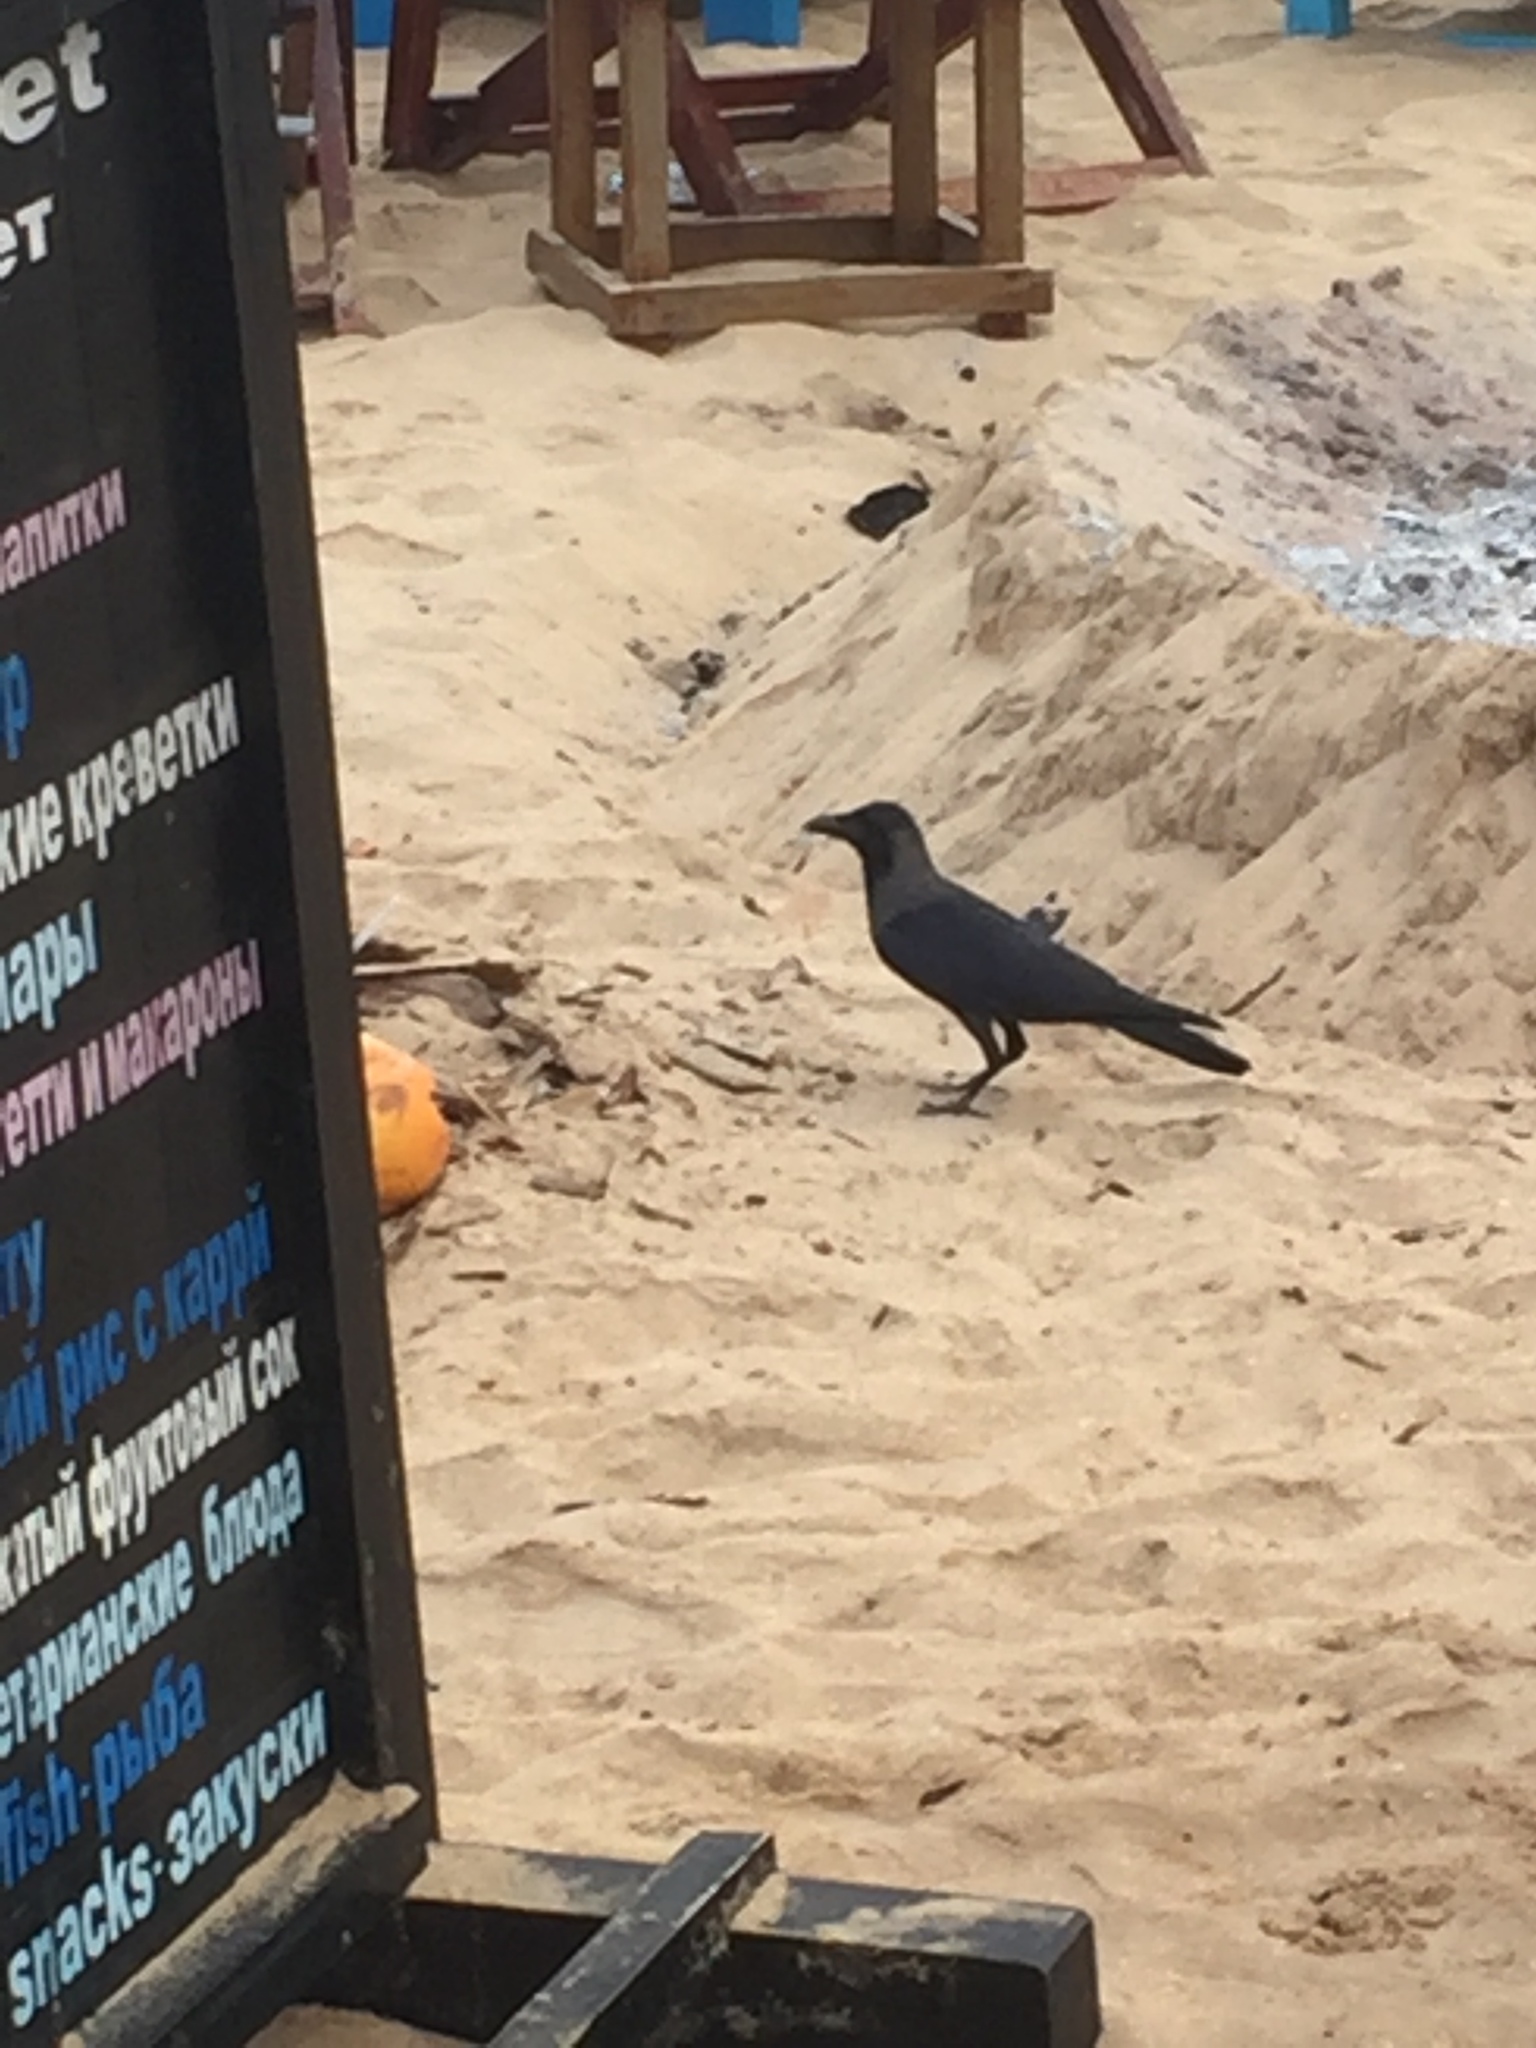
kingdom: Animalia
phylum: Chordata
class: Aves
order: Passeriformes
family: Corvidae
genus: Corvus
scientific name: Corvus splendens
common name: House crow
